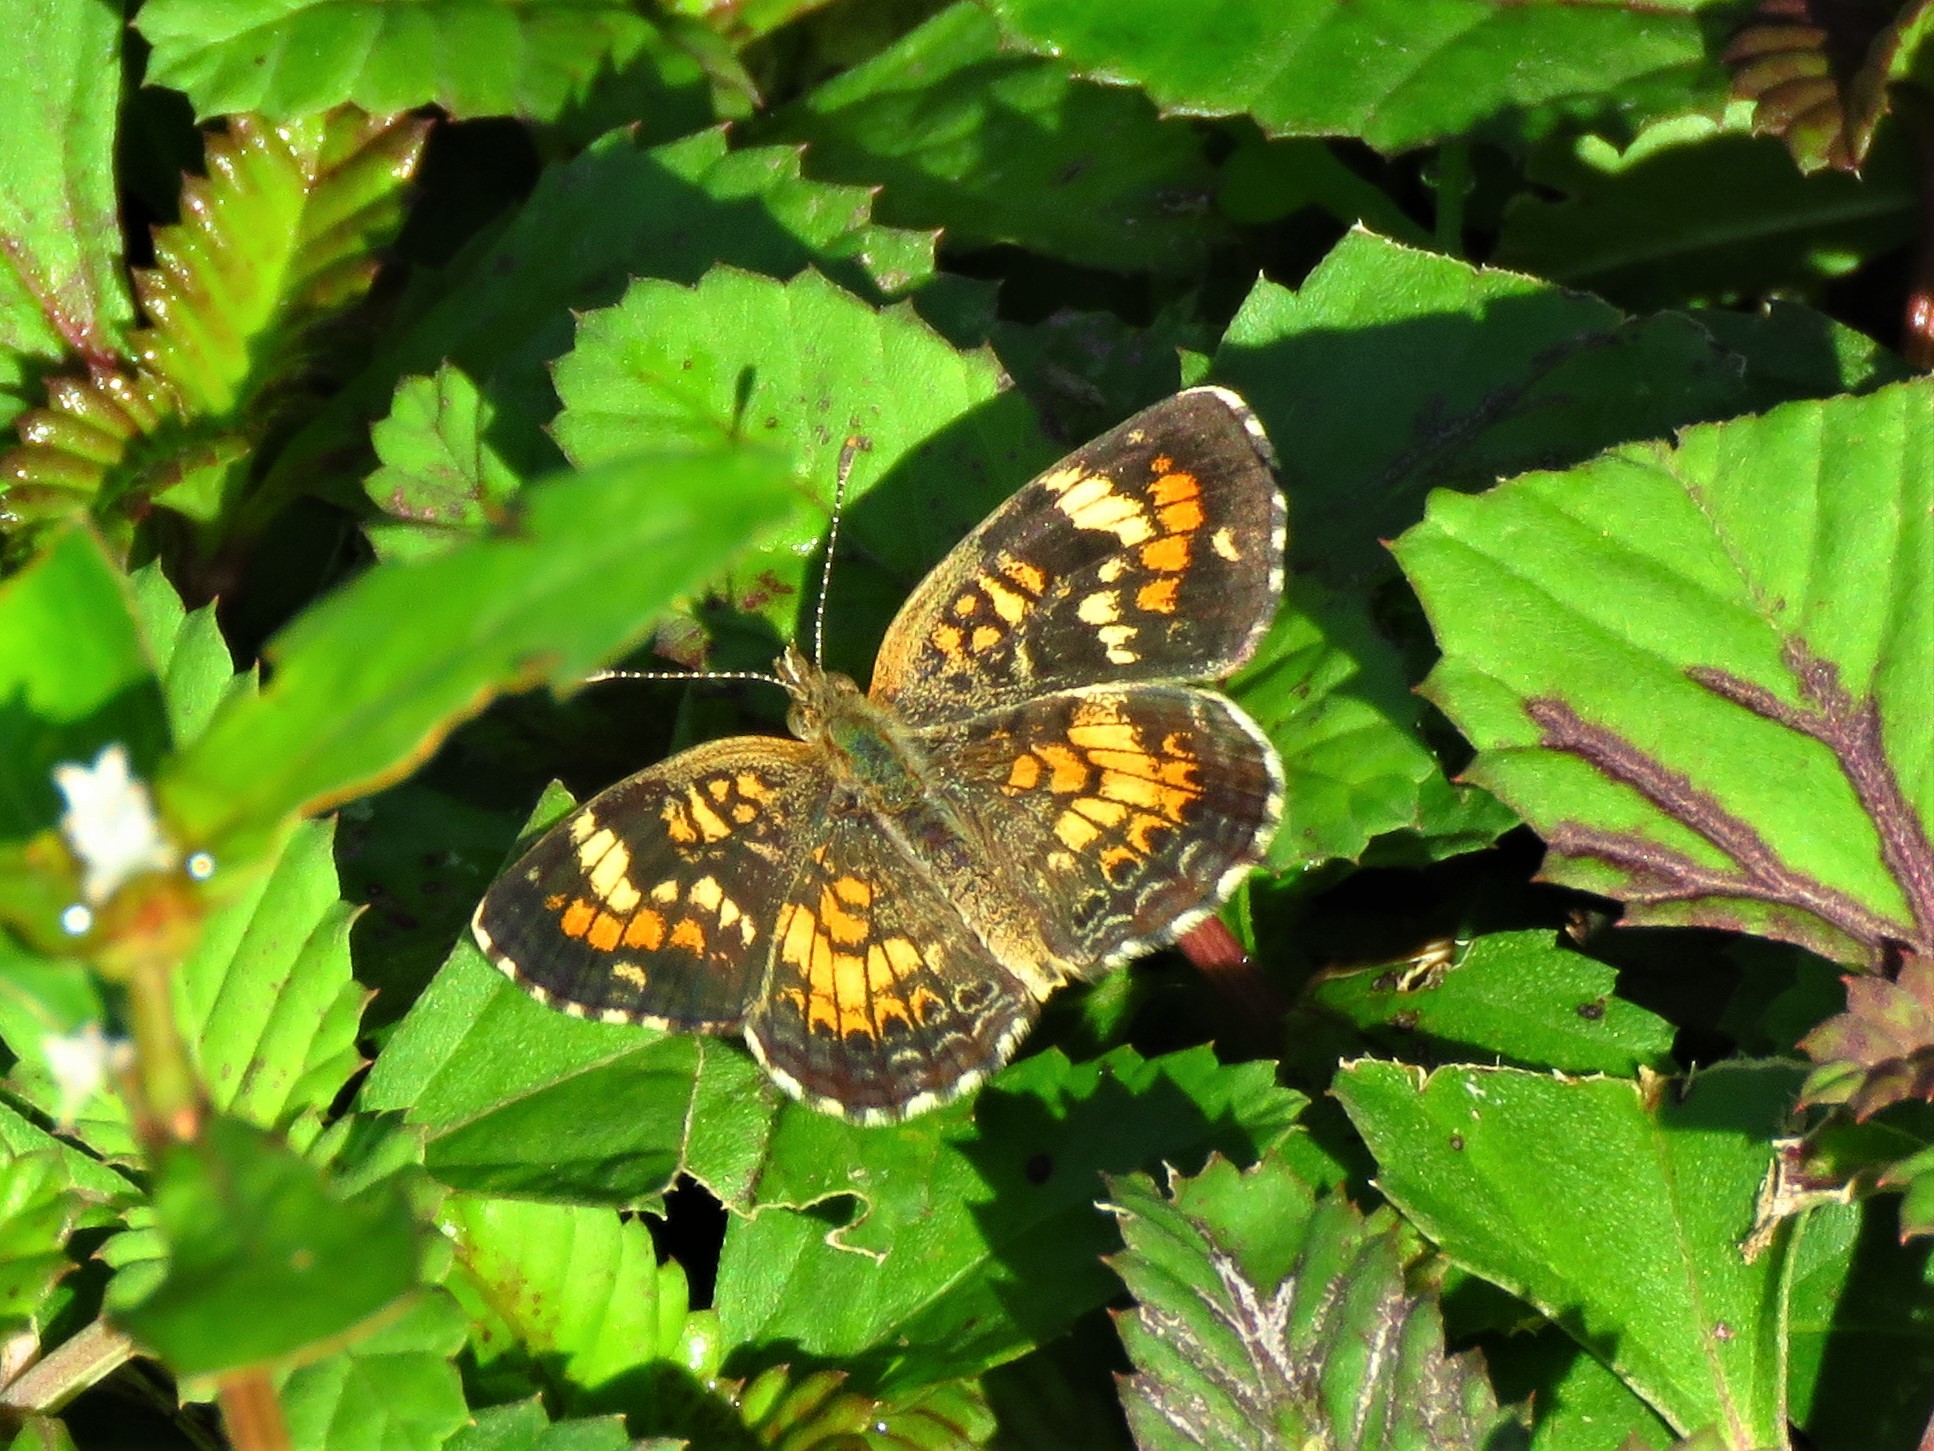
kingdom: Animalia
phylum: Arthropoda
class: Insecta
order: Lepidoptera
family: Nymphalidae
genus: Phyciodes
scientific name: Phyciodes phaon
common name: Phaon crescent
